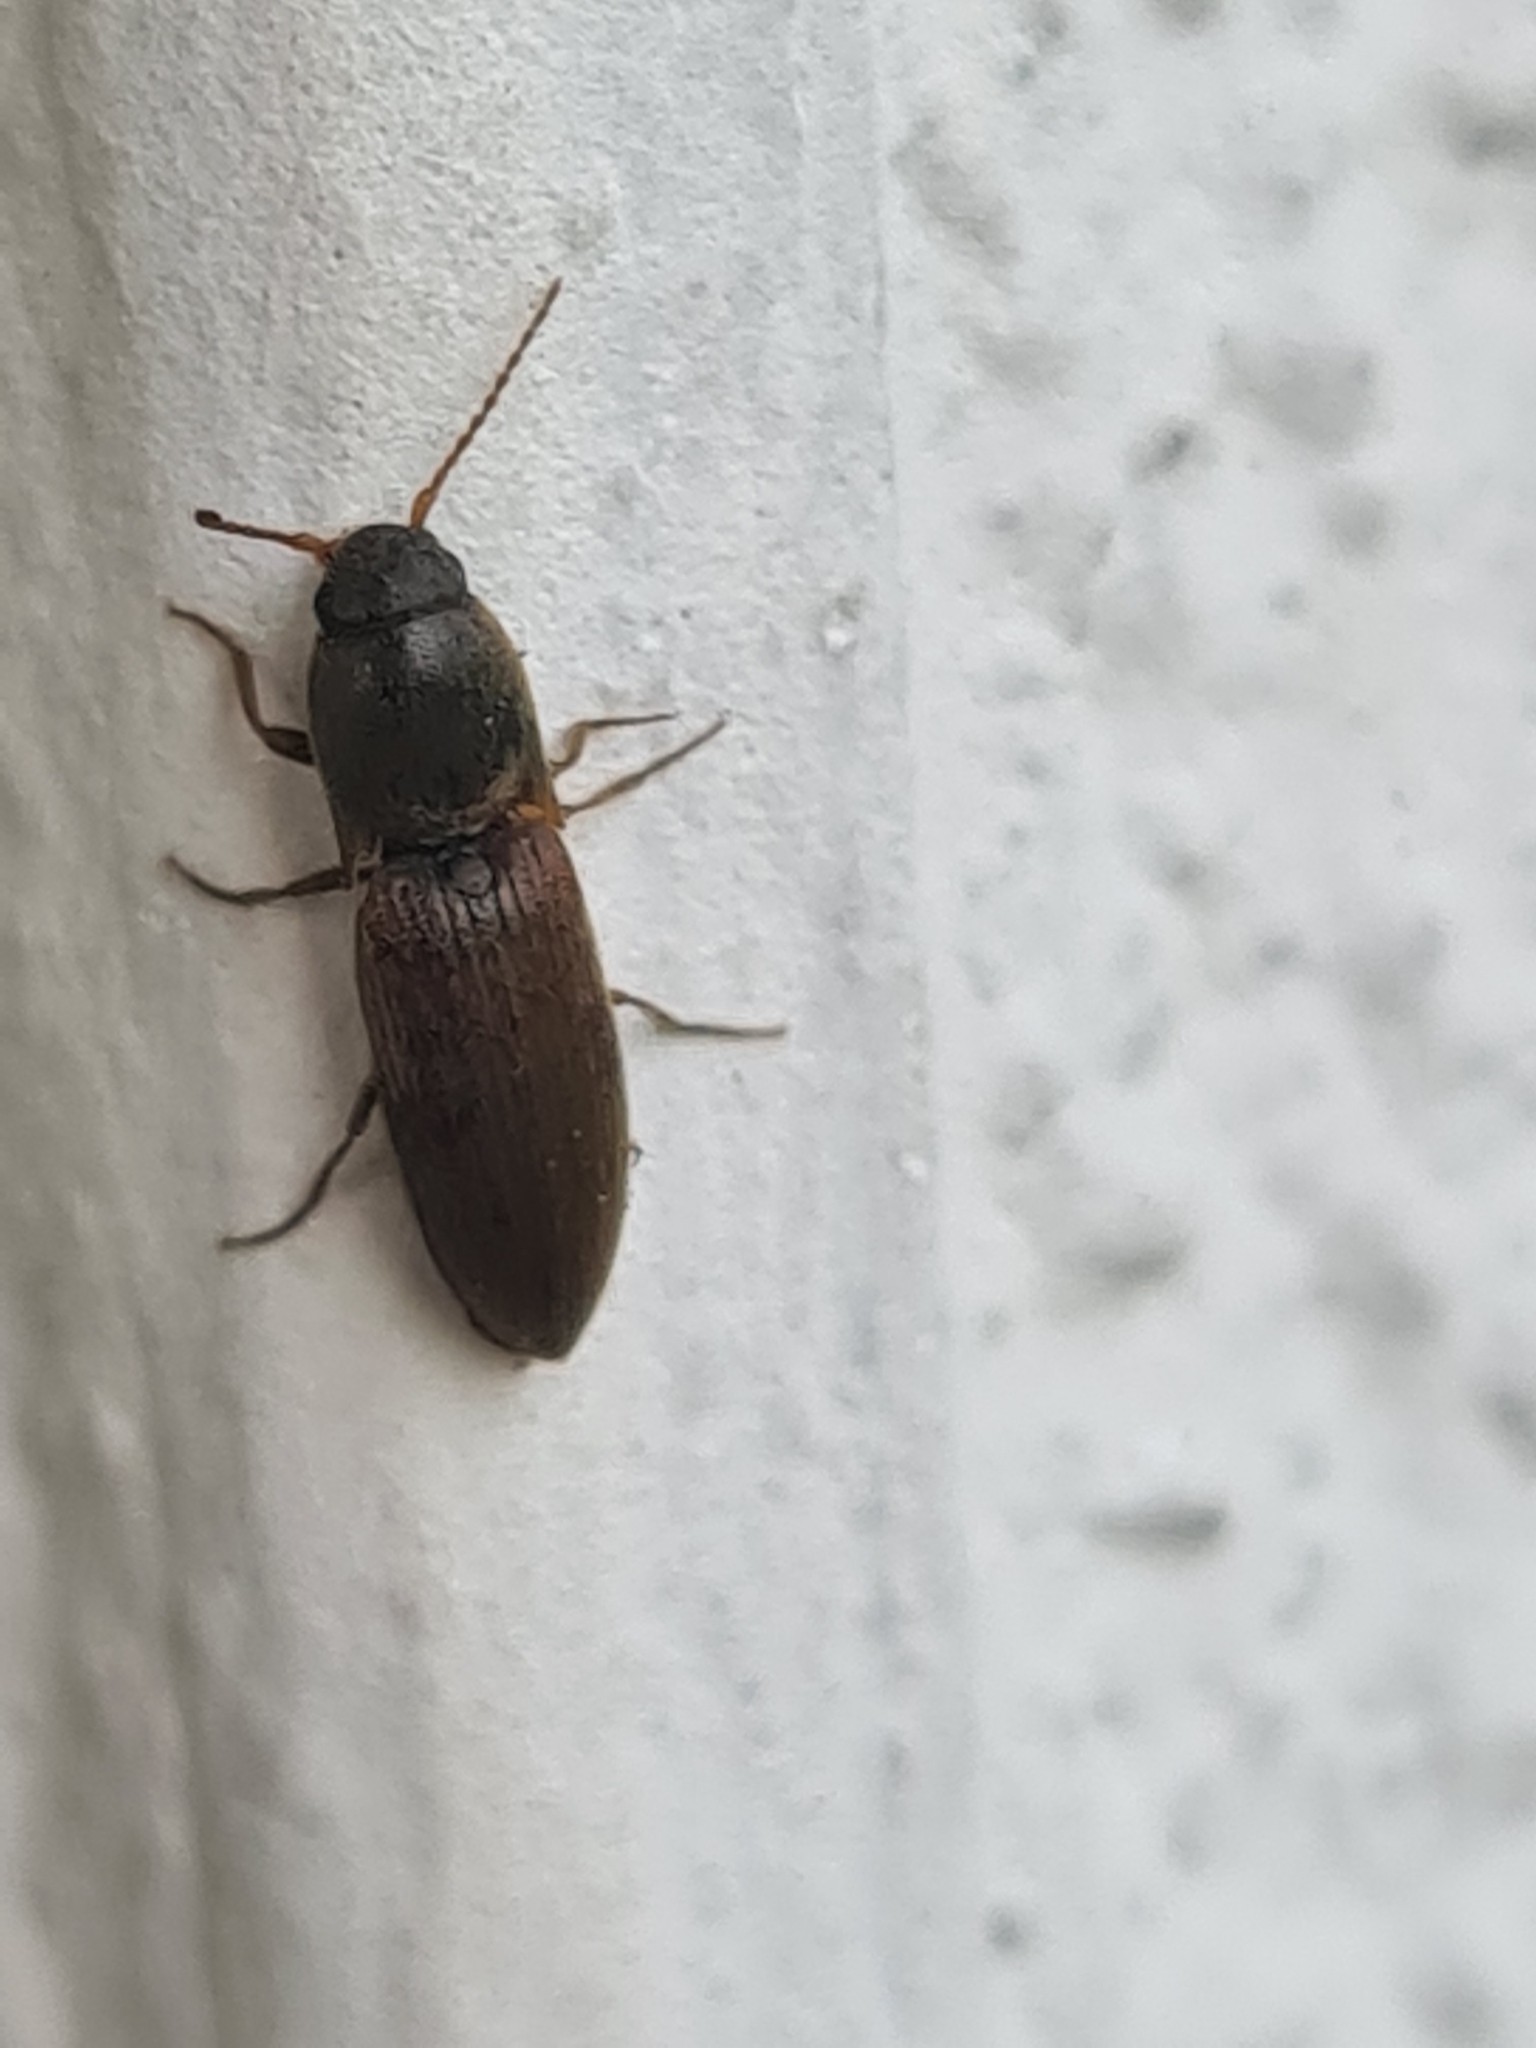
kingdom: Animalia
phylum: Arthropoda
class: Insecta
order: Coleoptera
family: Elateridae
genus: Agriotes
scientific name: Agriotes sputator
